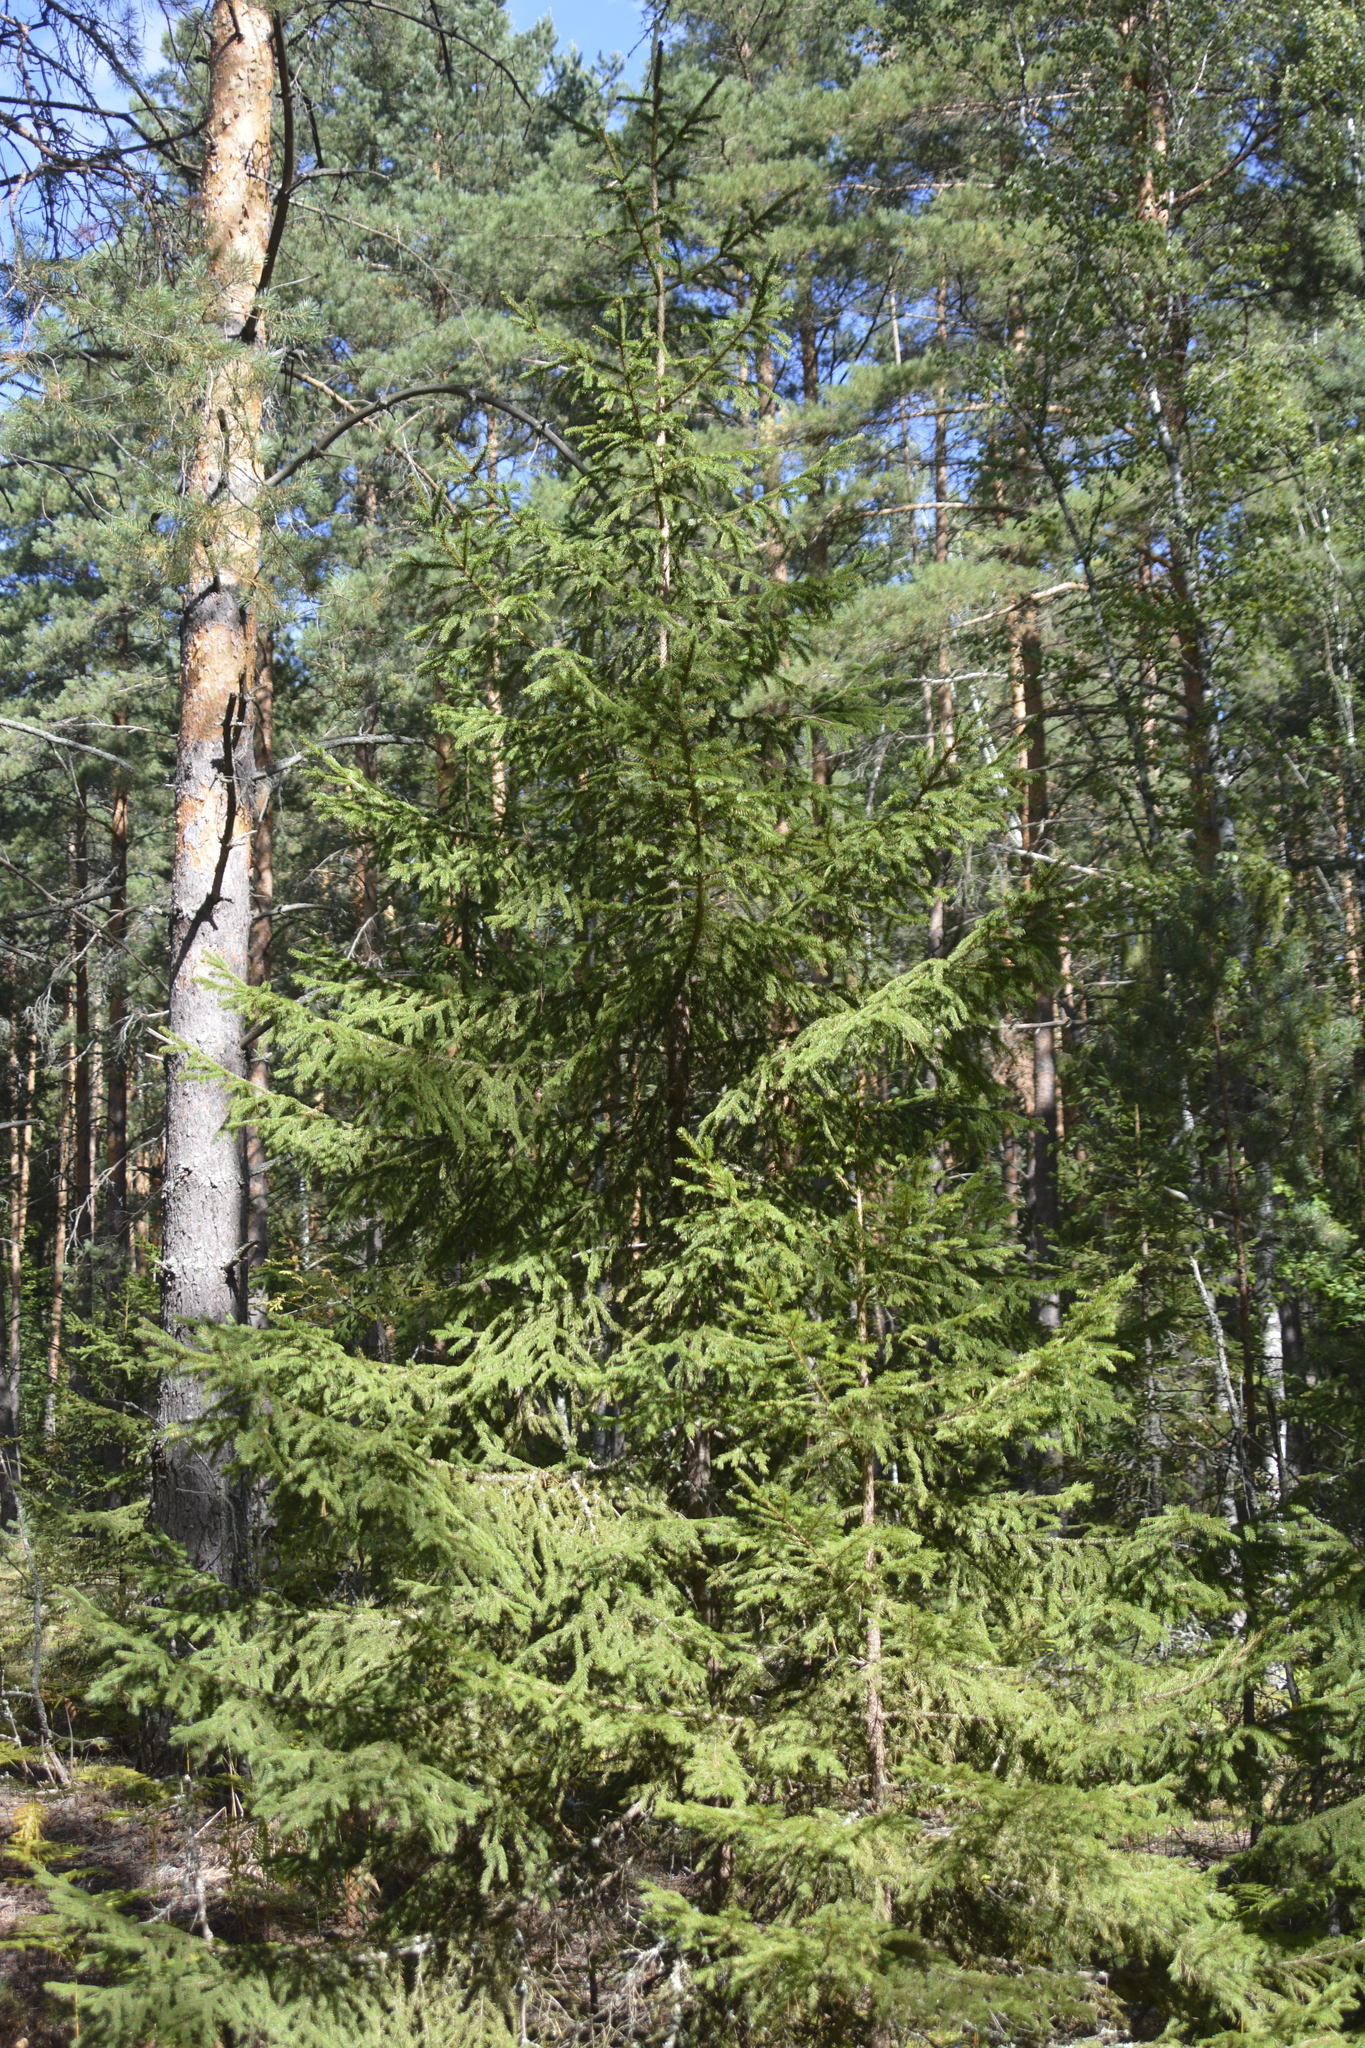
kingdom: Plantae
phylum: Tracheophyta
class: Pinopsida
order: Pinales
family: Pinaceae
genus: Picea
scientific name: Picea abies
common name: Norway spruce
